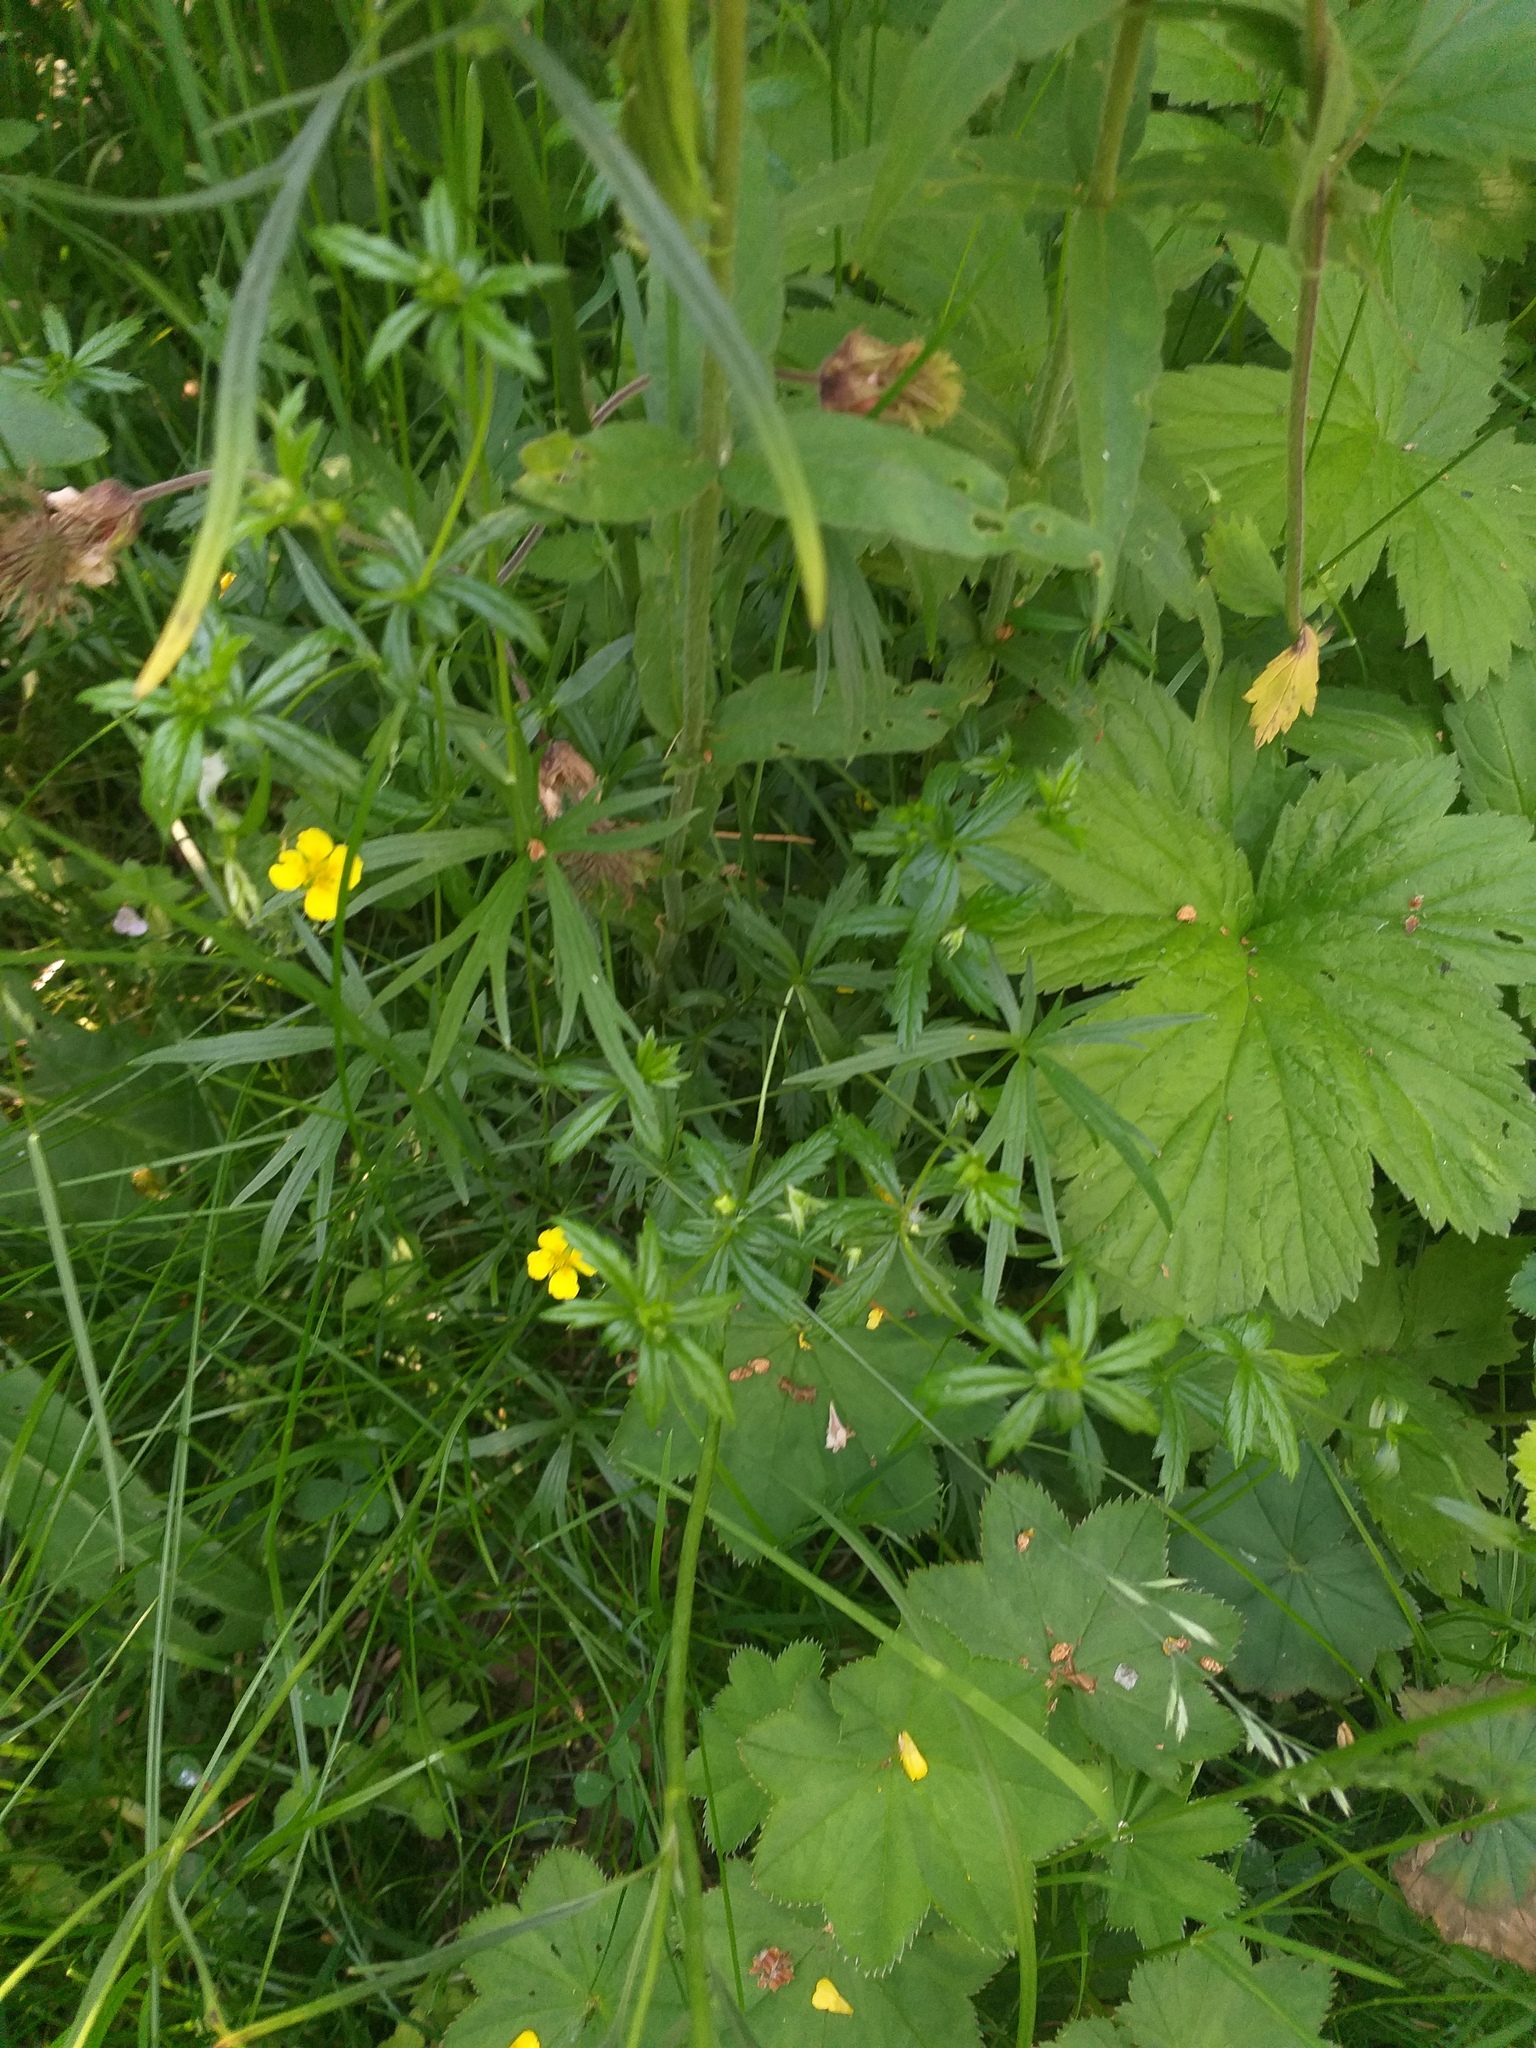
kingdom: Plantae
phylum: Tracheophyta
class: Magnoliopsida
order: Rosales
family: Rosaceae
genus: Potentilla
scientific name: Potentilla erecta
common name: Tormentil
